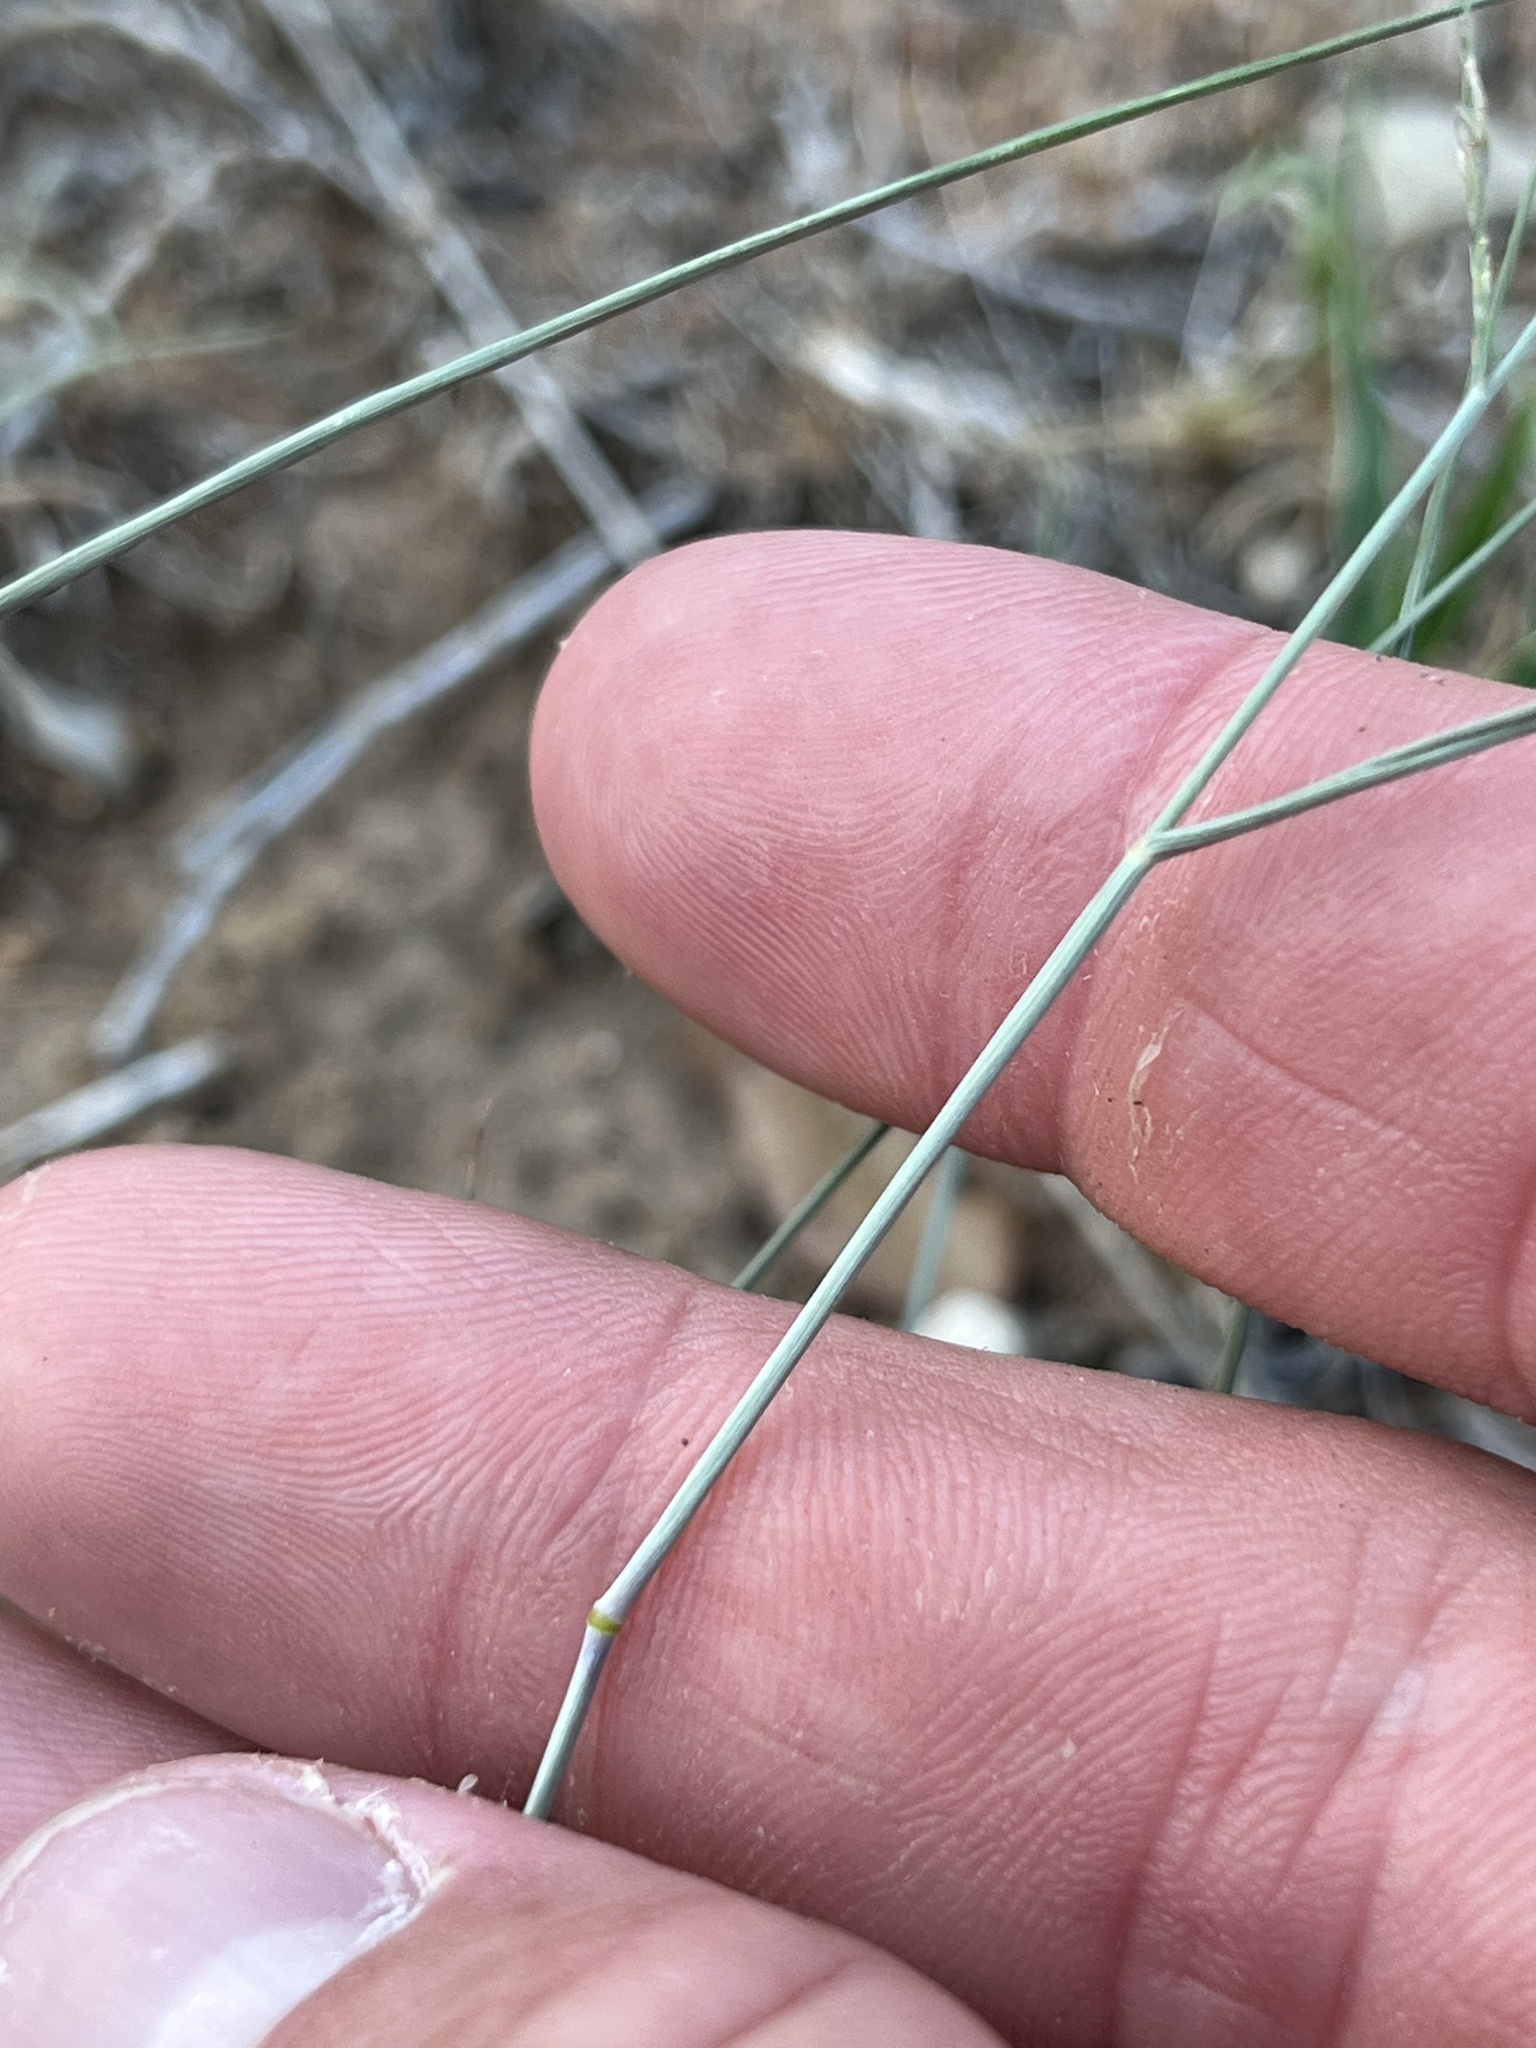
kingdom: Plantae
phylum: Tracheophyta
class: Liliopsida
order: Poales
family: Poaceae
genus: Eragrostis
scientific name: Eragrostis secundiflora
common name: Red love grass
